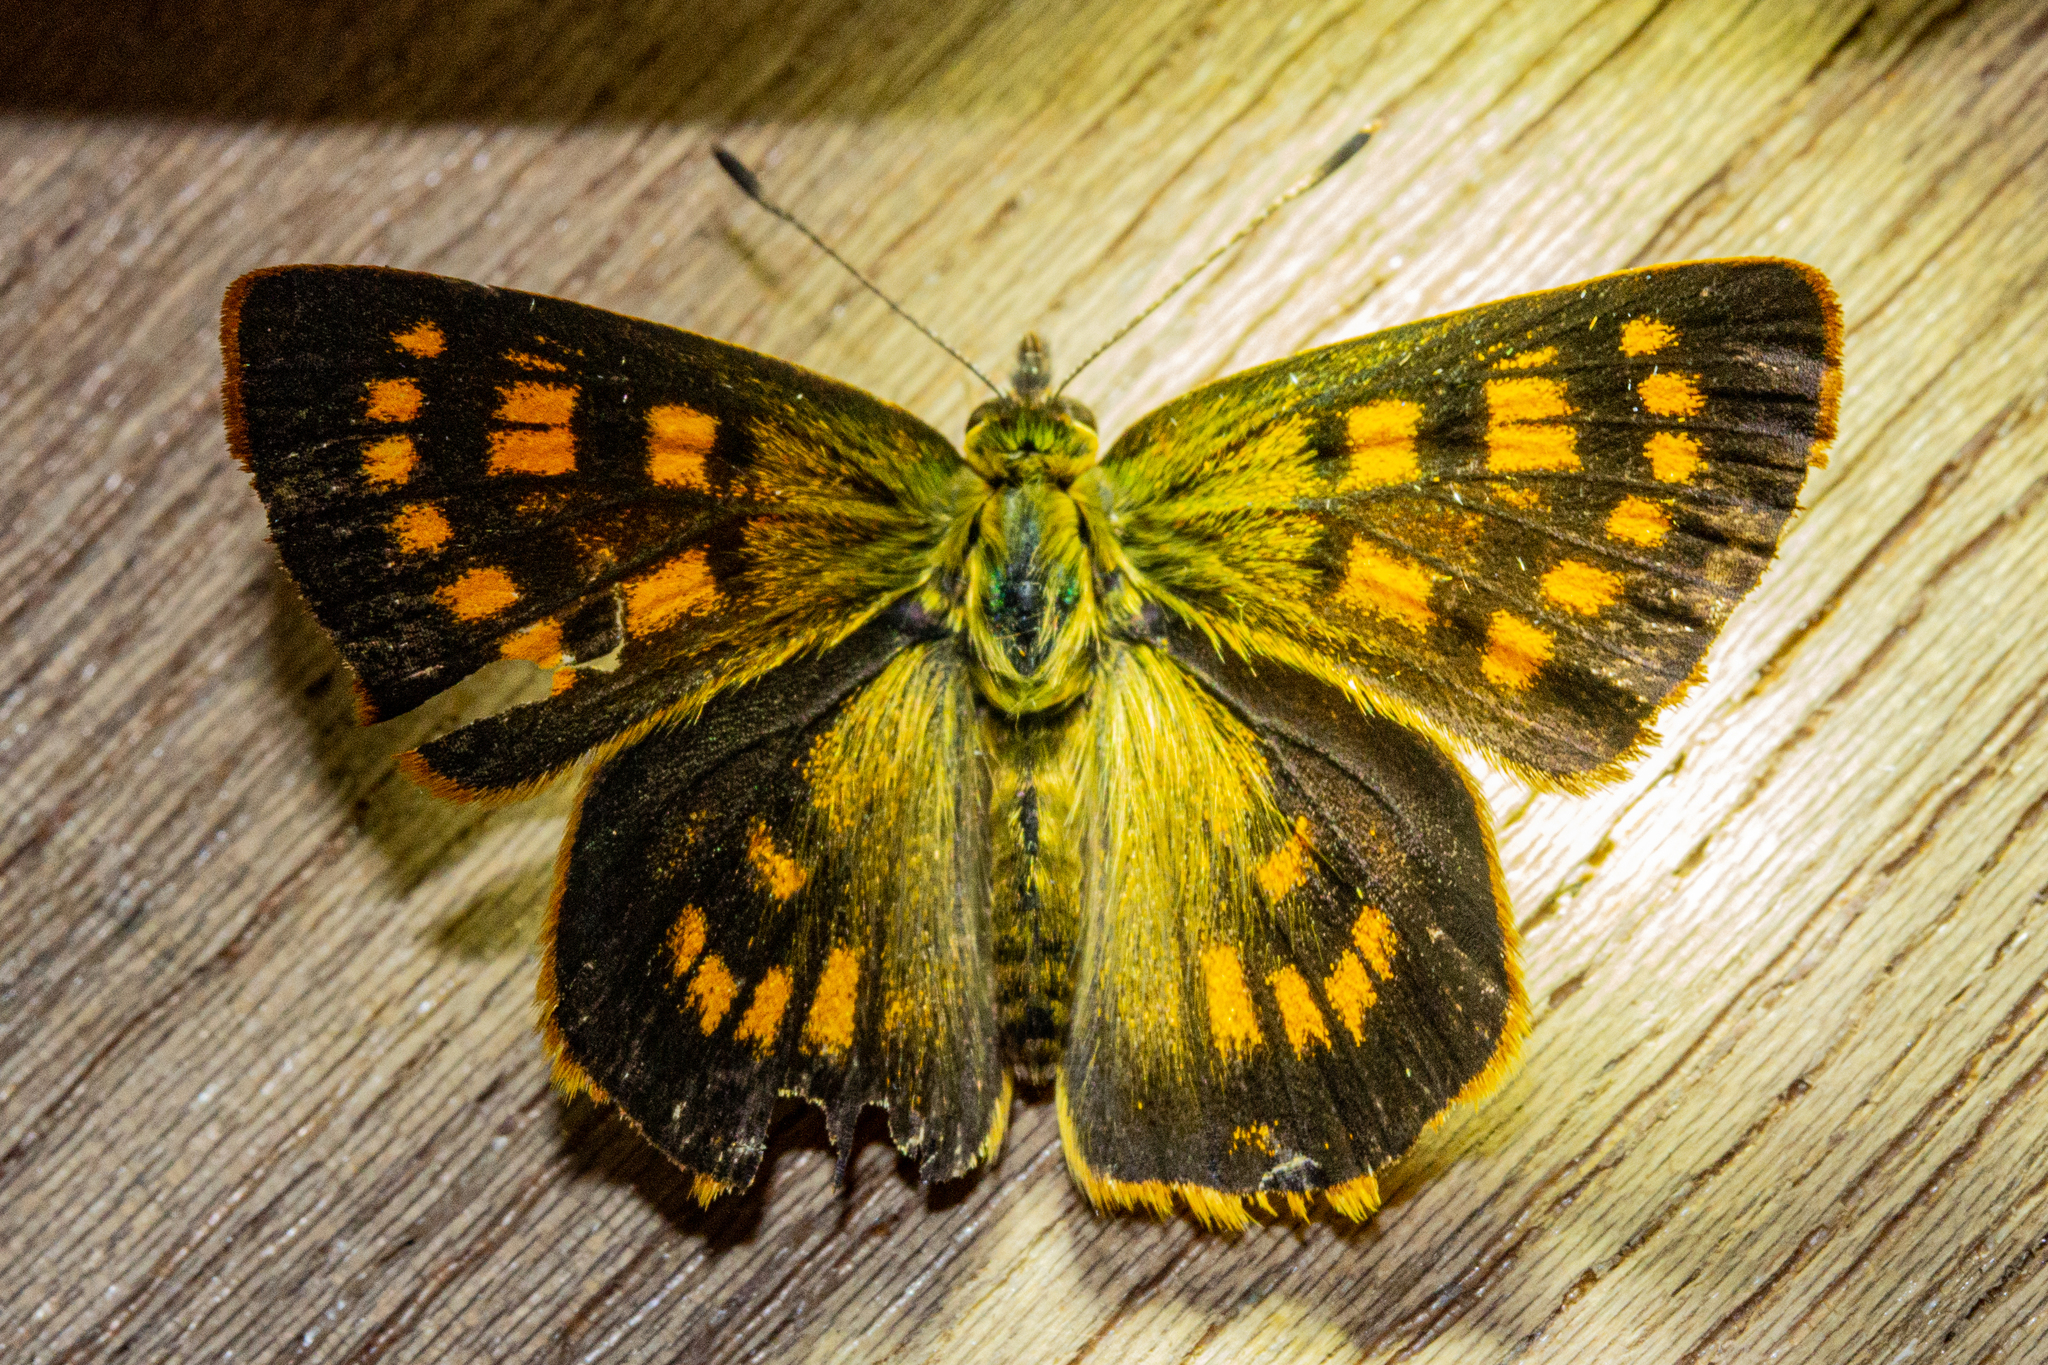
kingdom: Animalia
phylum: Arthropoda
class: Insecta
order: Lepidoptera
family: Lycaenidae
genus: Lycaena
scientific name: Lycaena feredayi
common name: Glade copper
